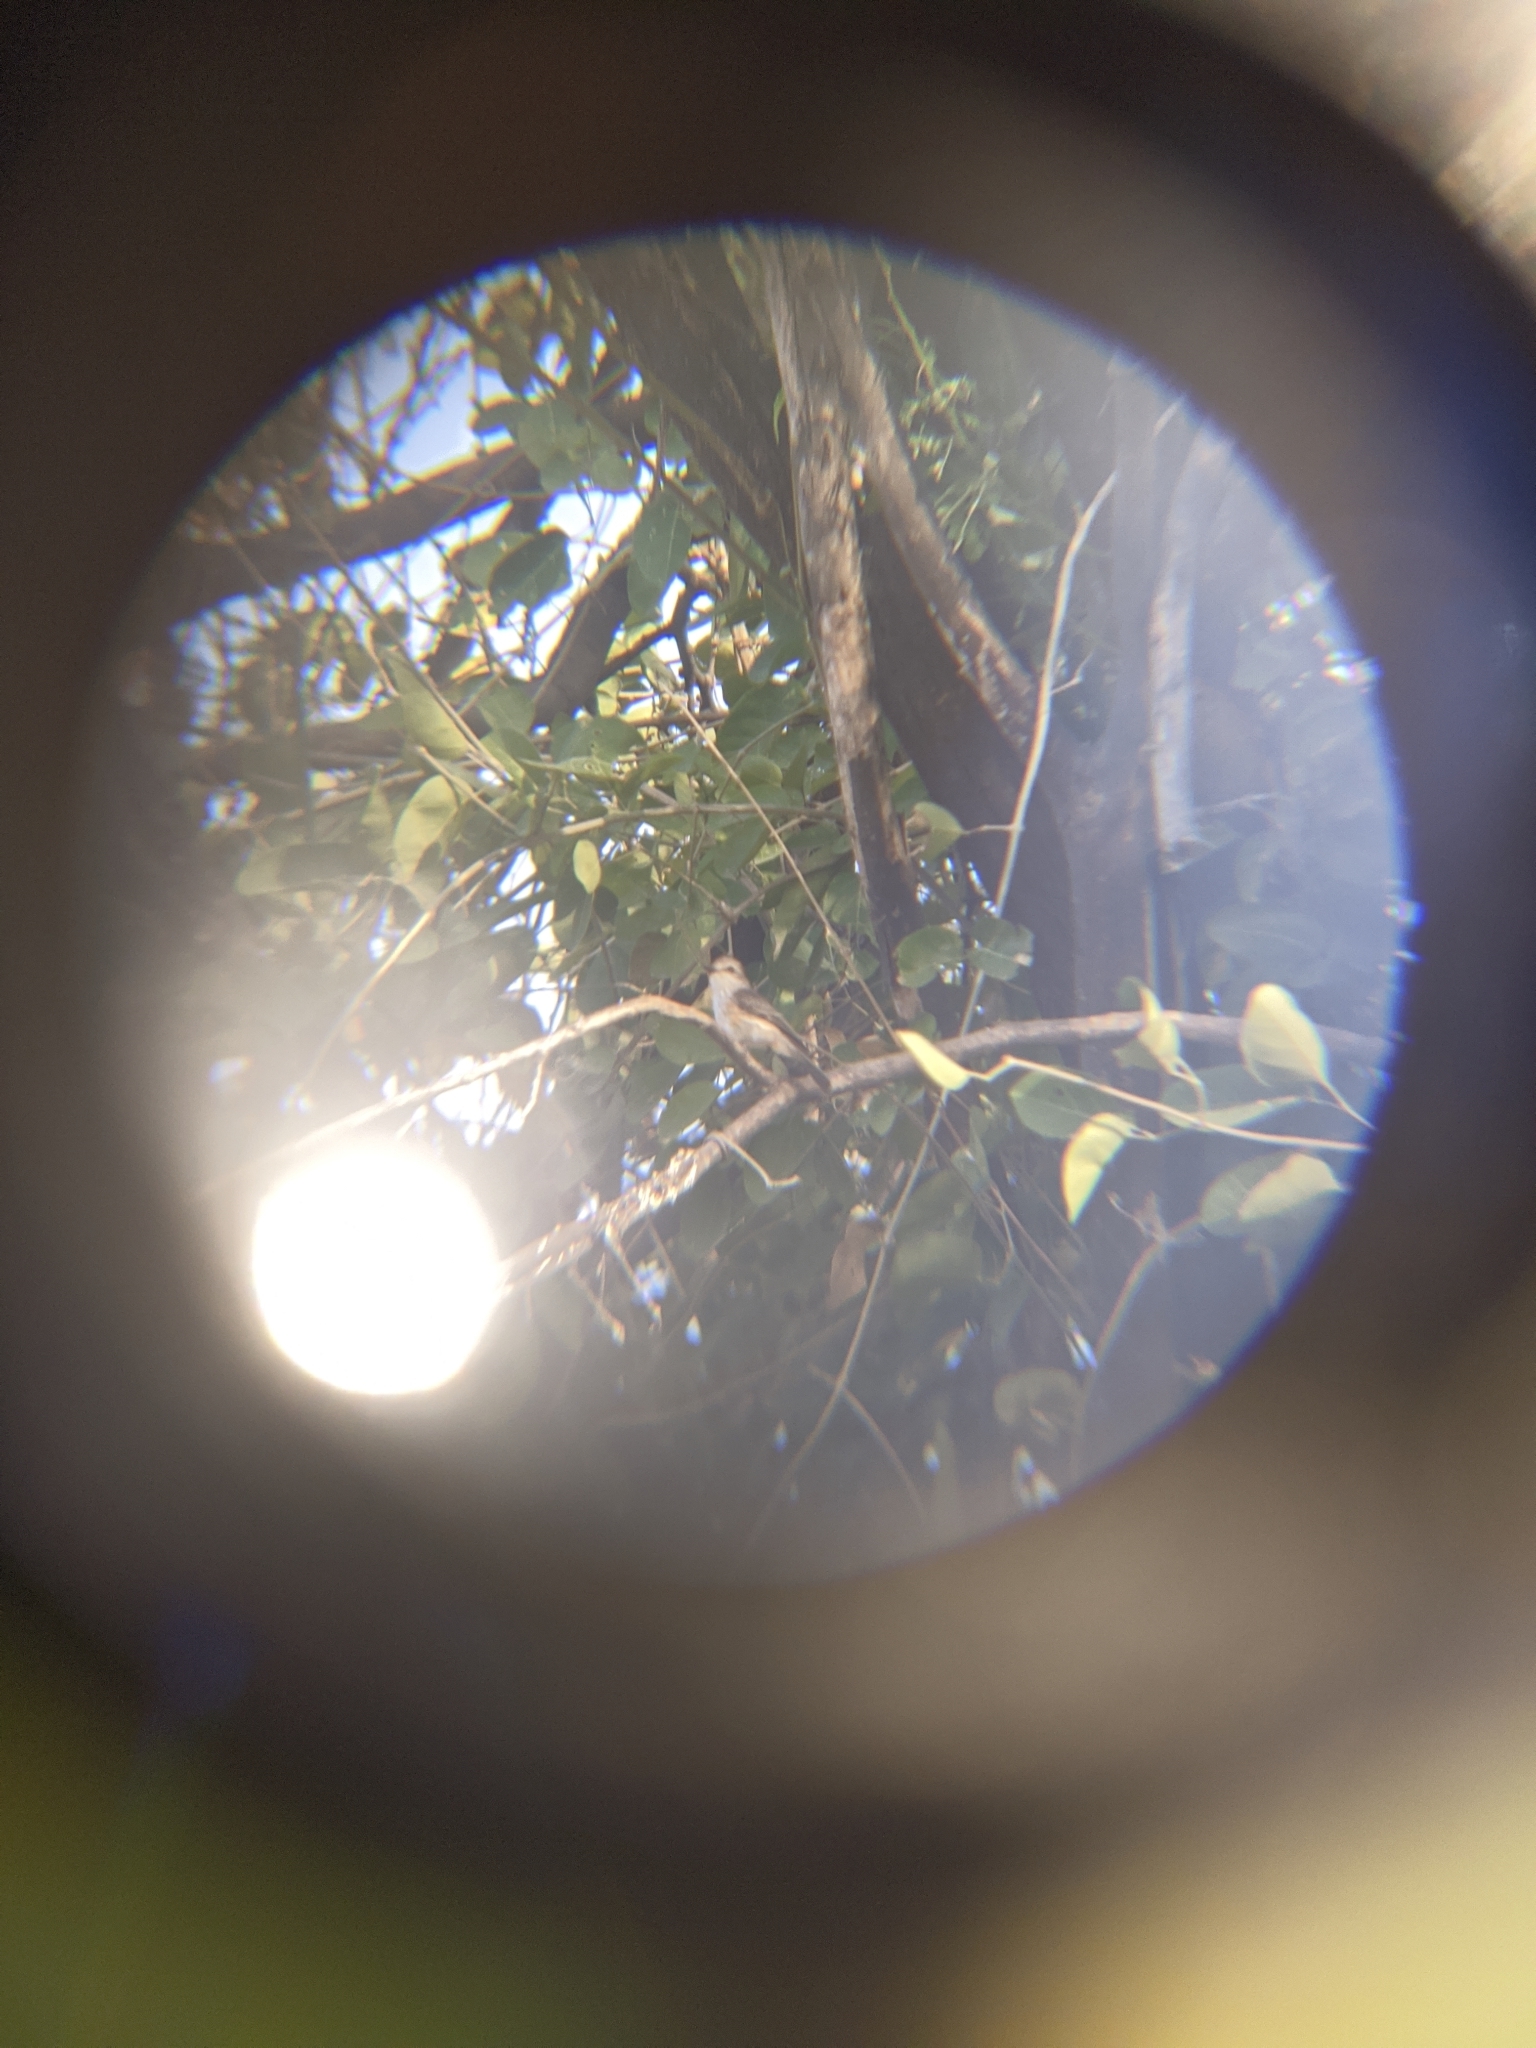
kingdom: Animalia
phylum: Chordata
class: Aves
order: Passeriformes
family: Tyrannidae
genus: Pyrocephalus
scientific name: Pyrocephalus rubinus
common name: Vermilion flycatcher
